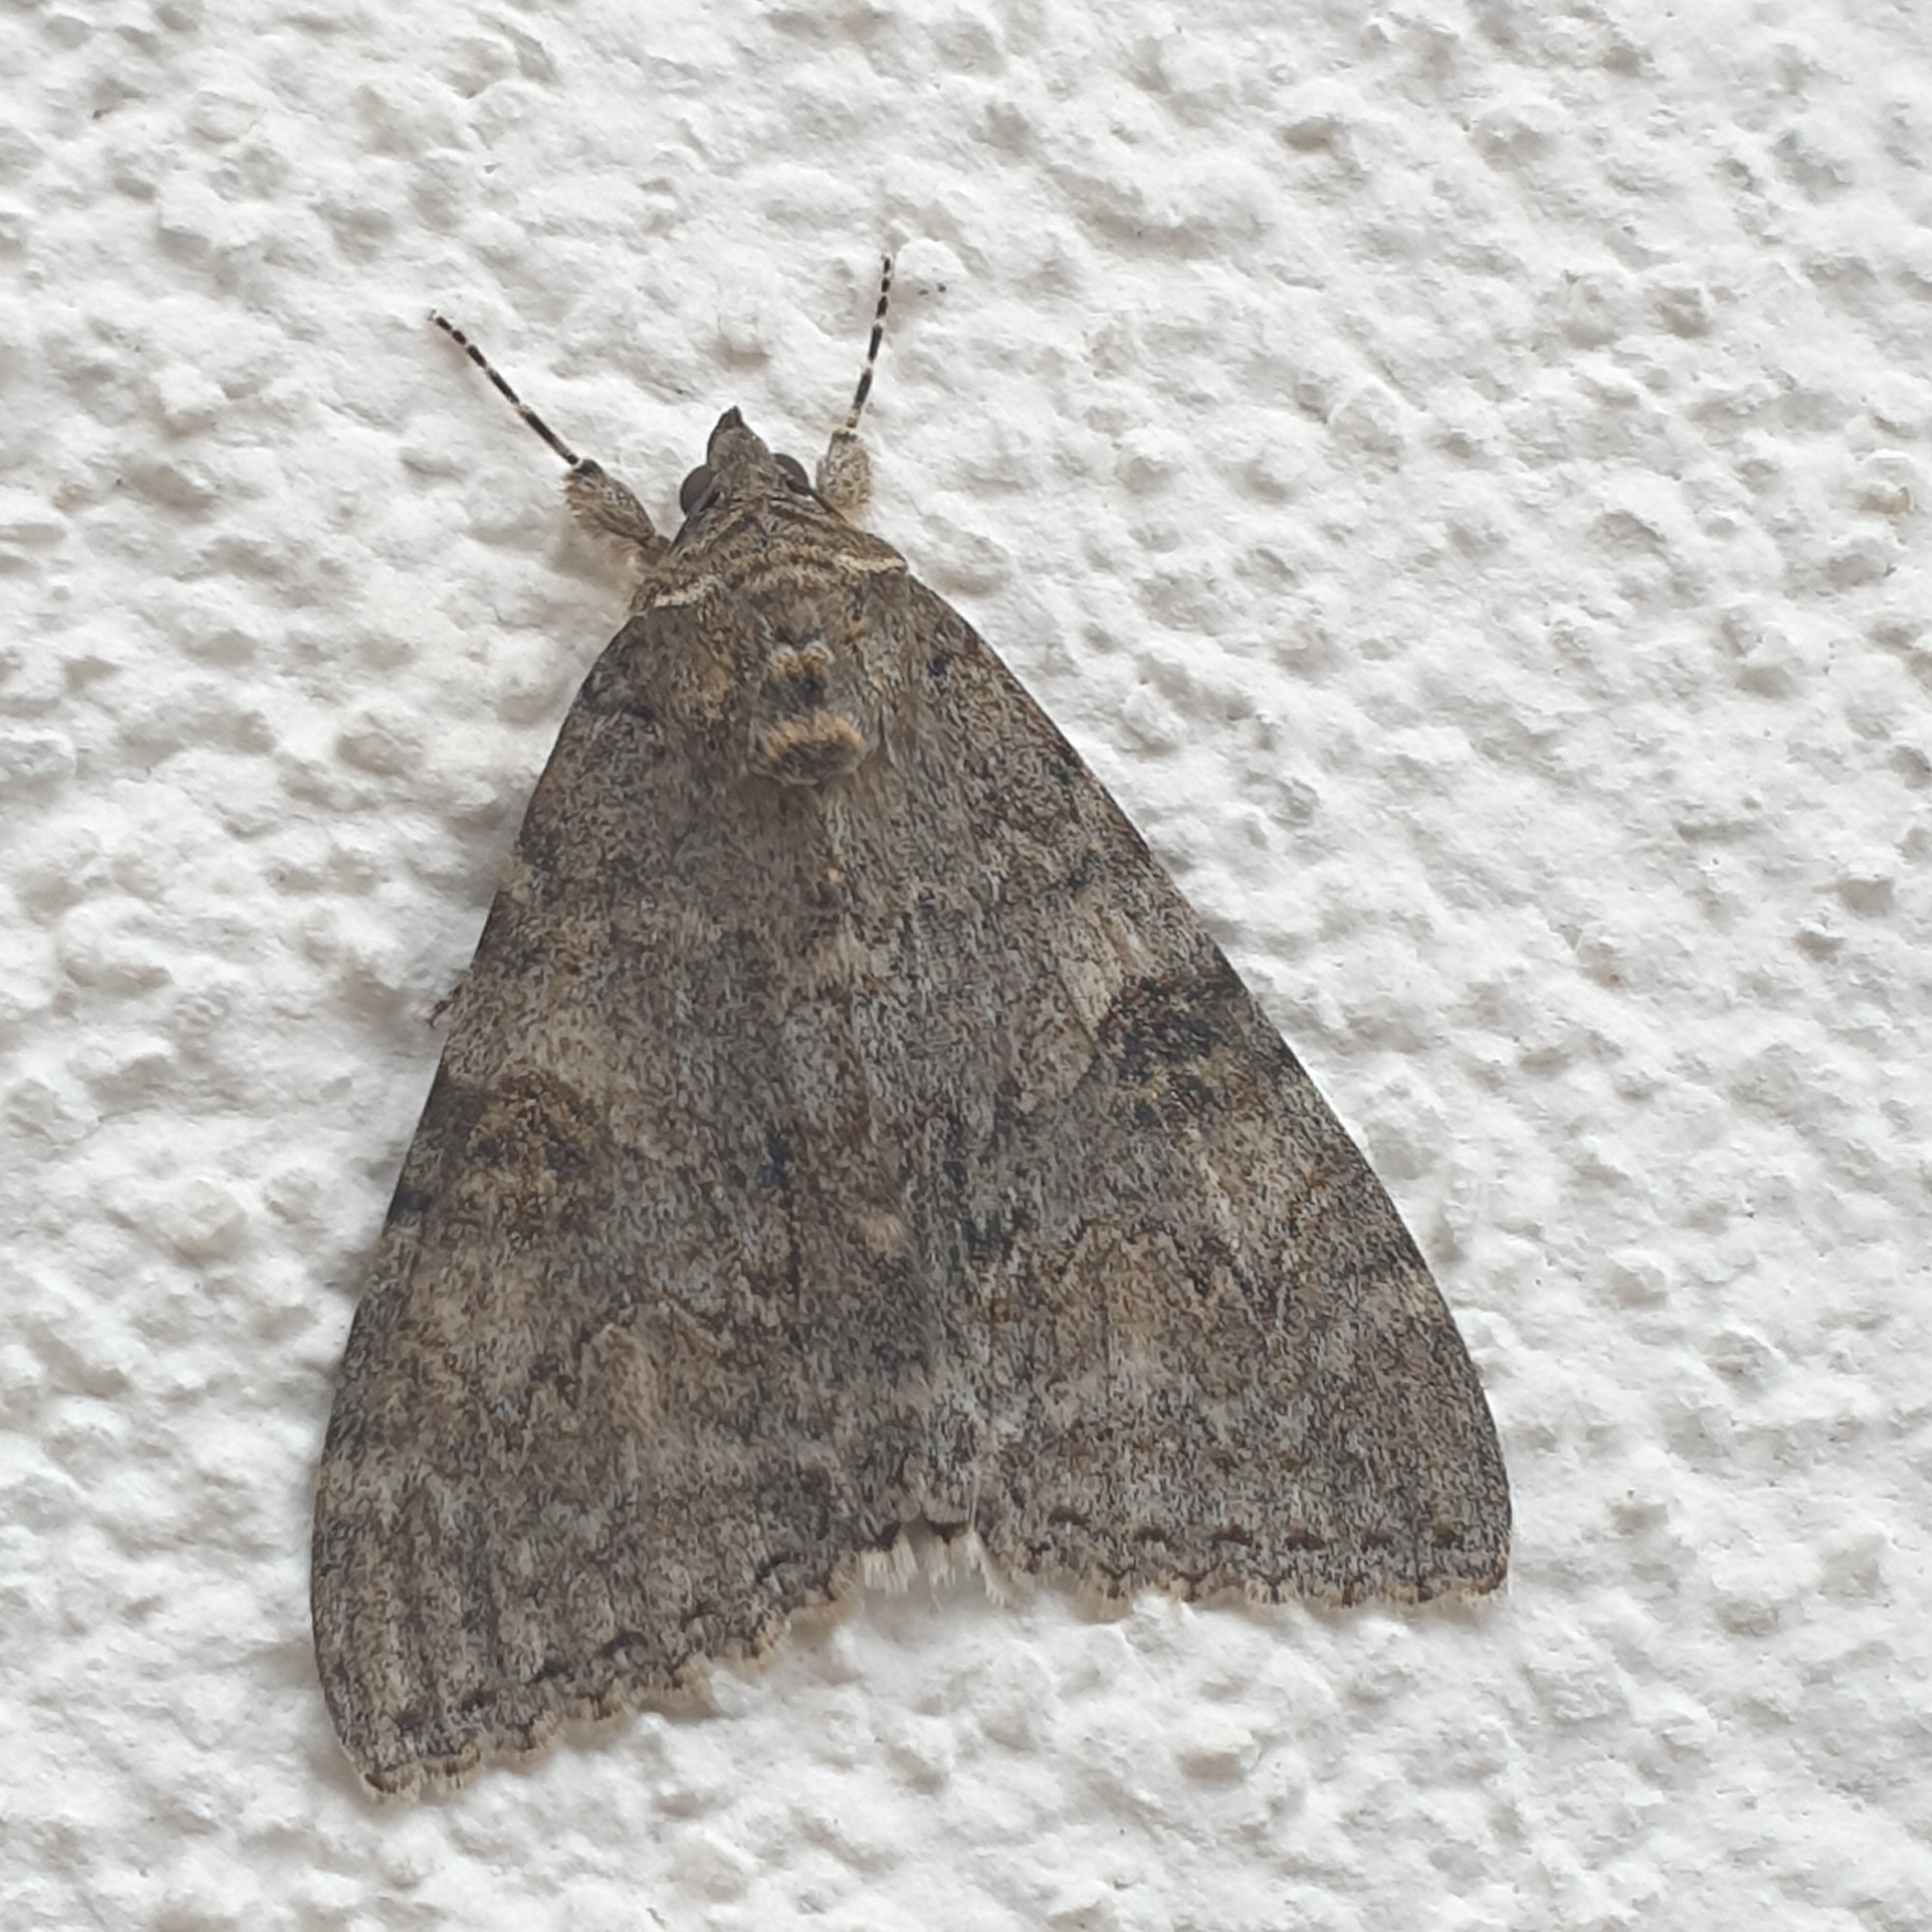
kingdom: Animalia
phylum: Arthropoda
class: Insecta
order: Lepidoptera
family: Erebidae
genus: Catocala
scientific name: Catocala nupta
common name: Red underwing
